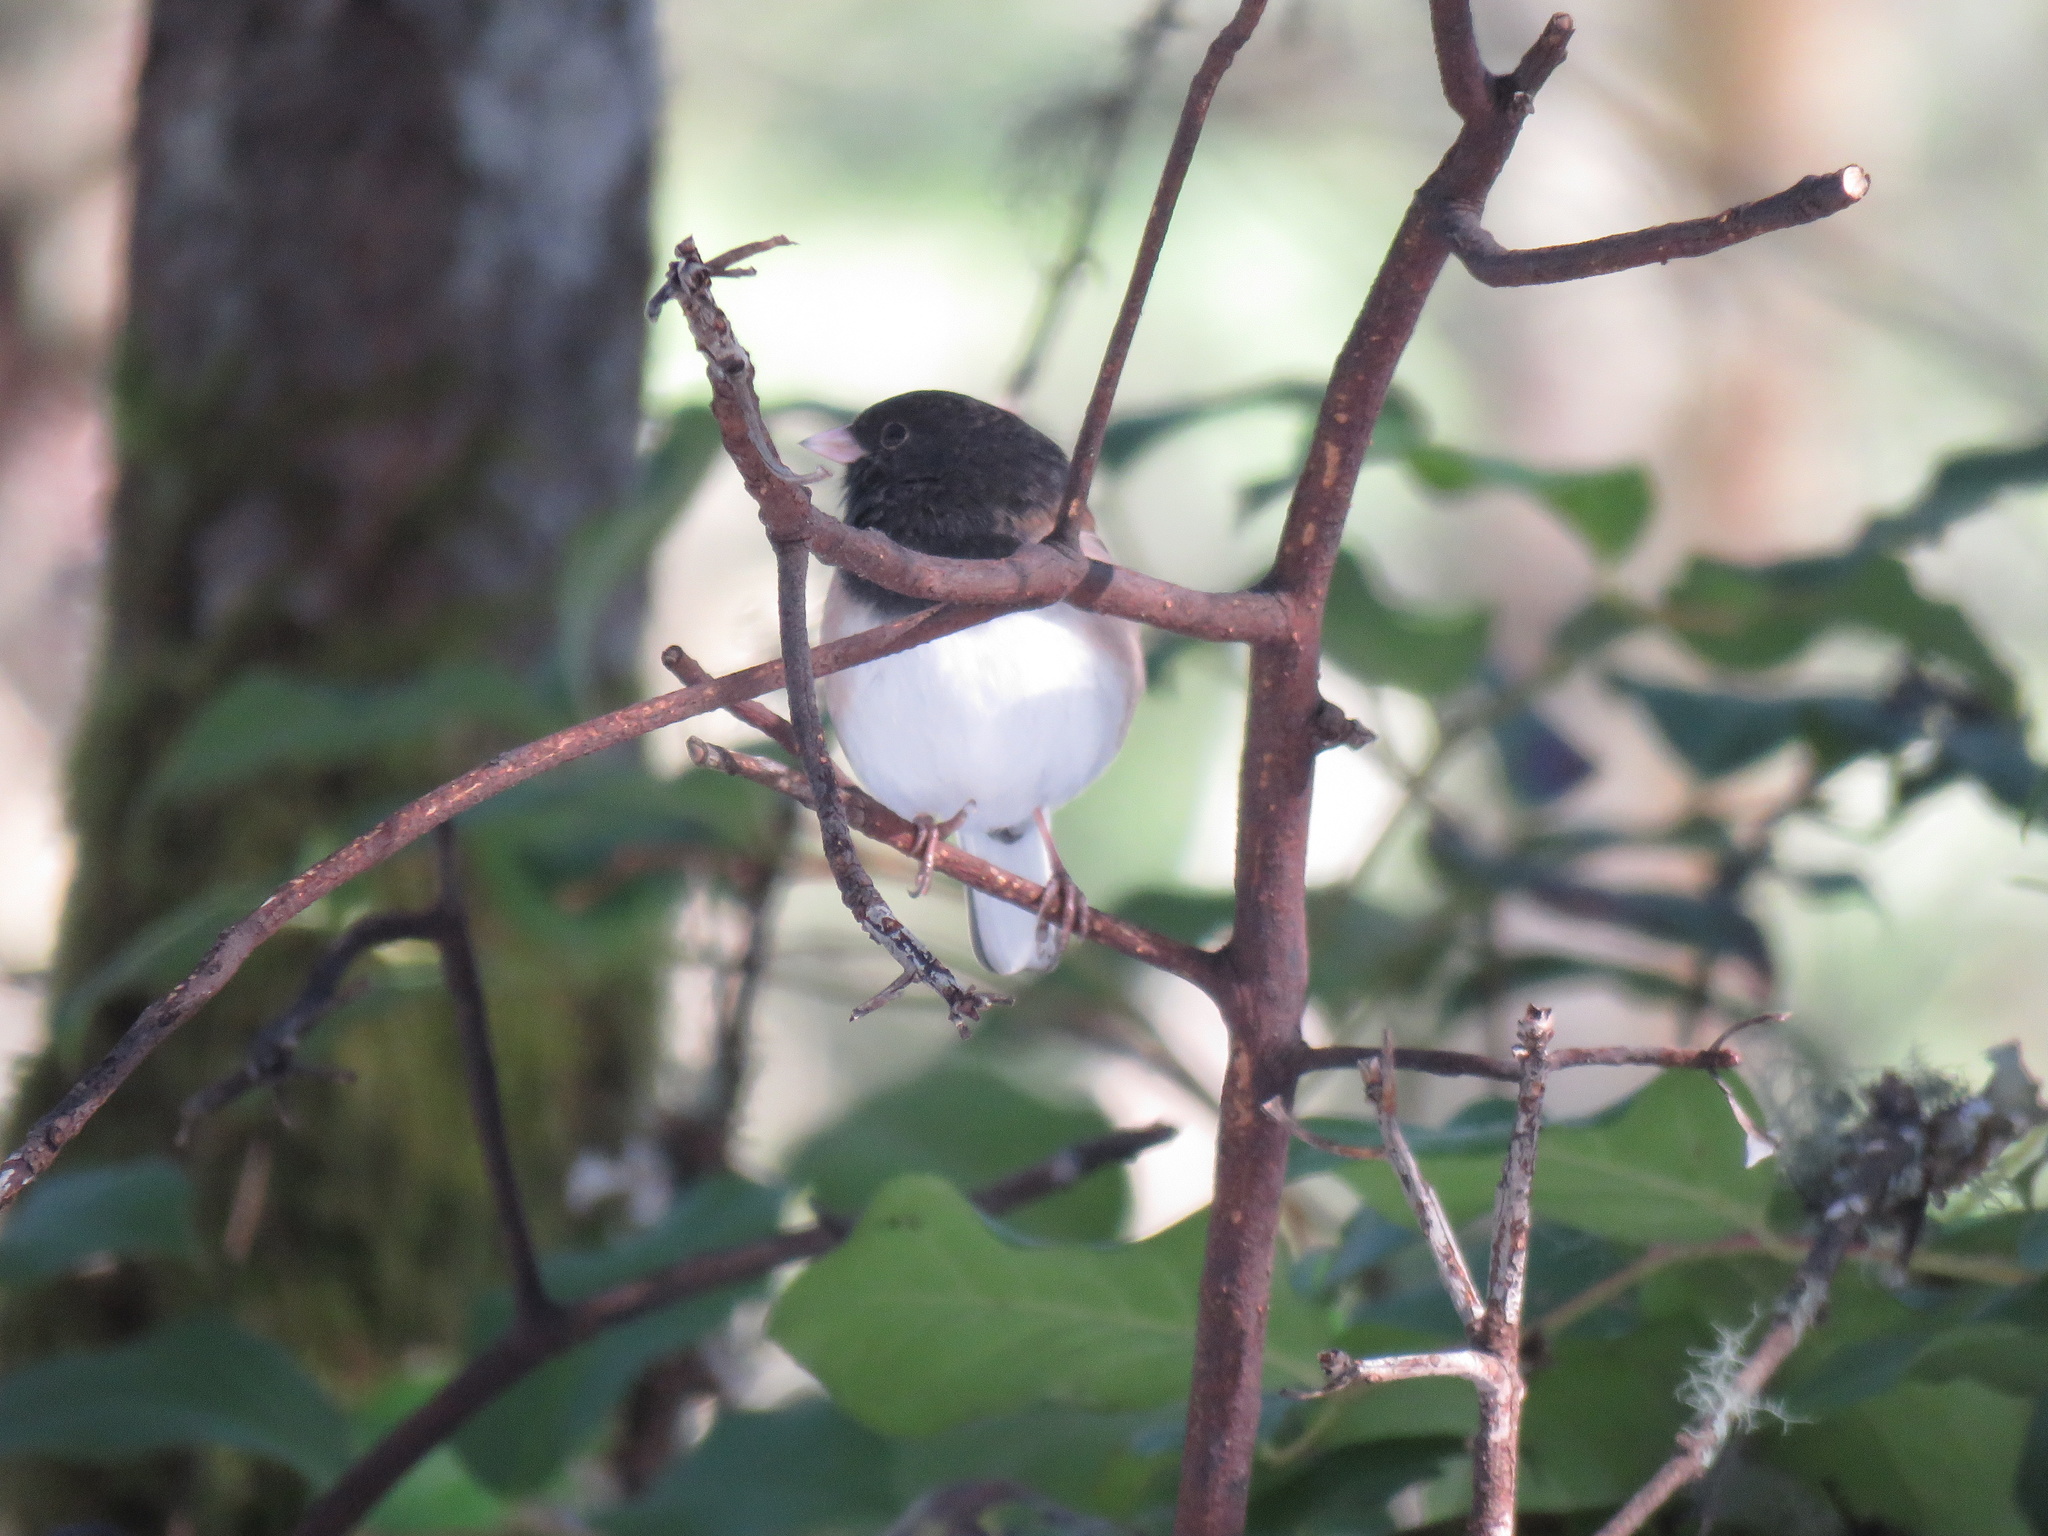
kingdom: Animalia
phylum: Chordata
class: Aves
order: Passeriformes
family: Passerellidae
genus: Junco
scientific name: Junco hyemalis
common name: Dark-eyed junco
